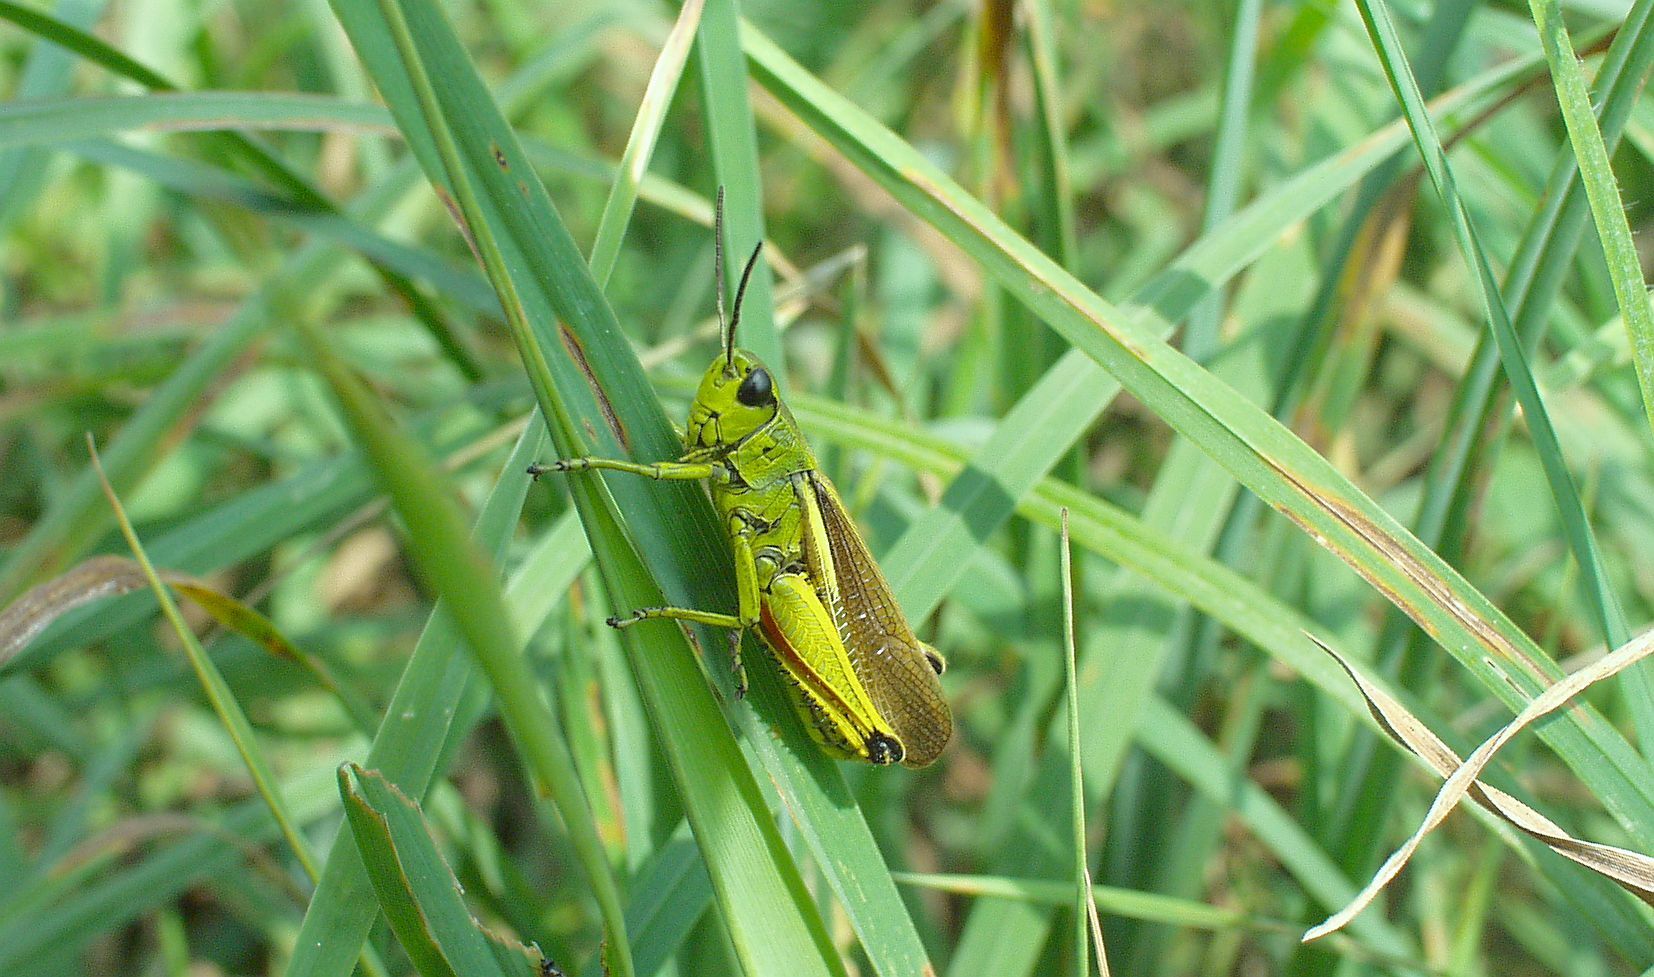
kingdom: Animalia
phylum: Arthropoda
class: Insecta
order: Orthoptera
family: Acrididae
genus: Stethophyma
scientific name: Stethophyma grossum
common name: Large marsh grasshopper
